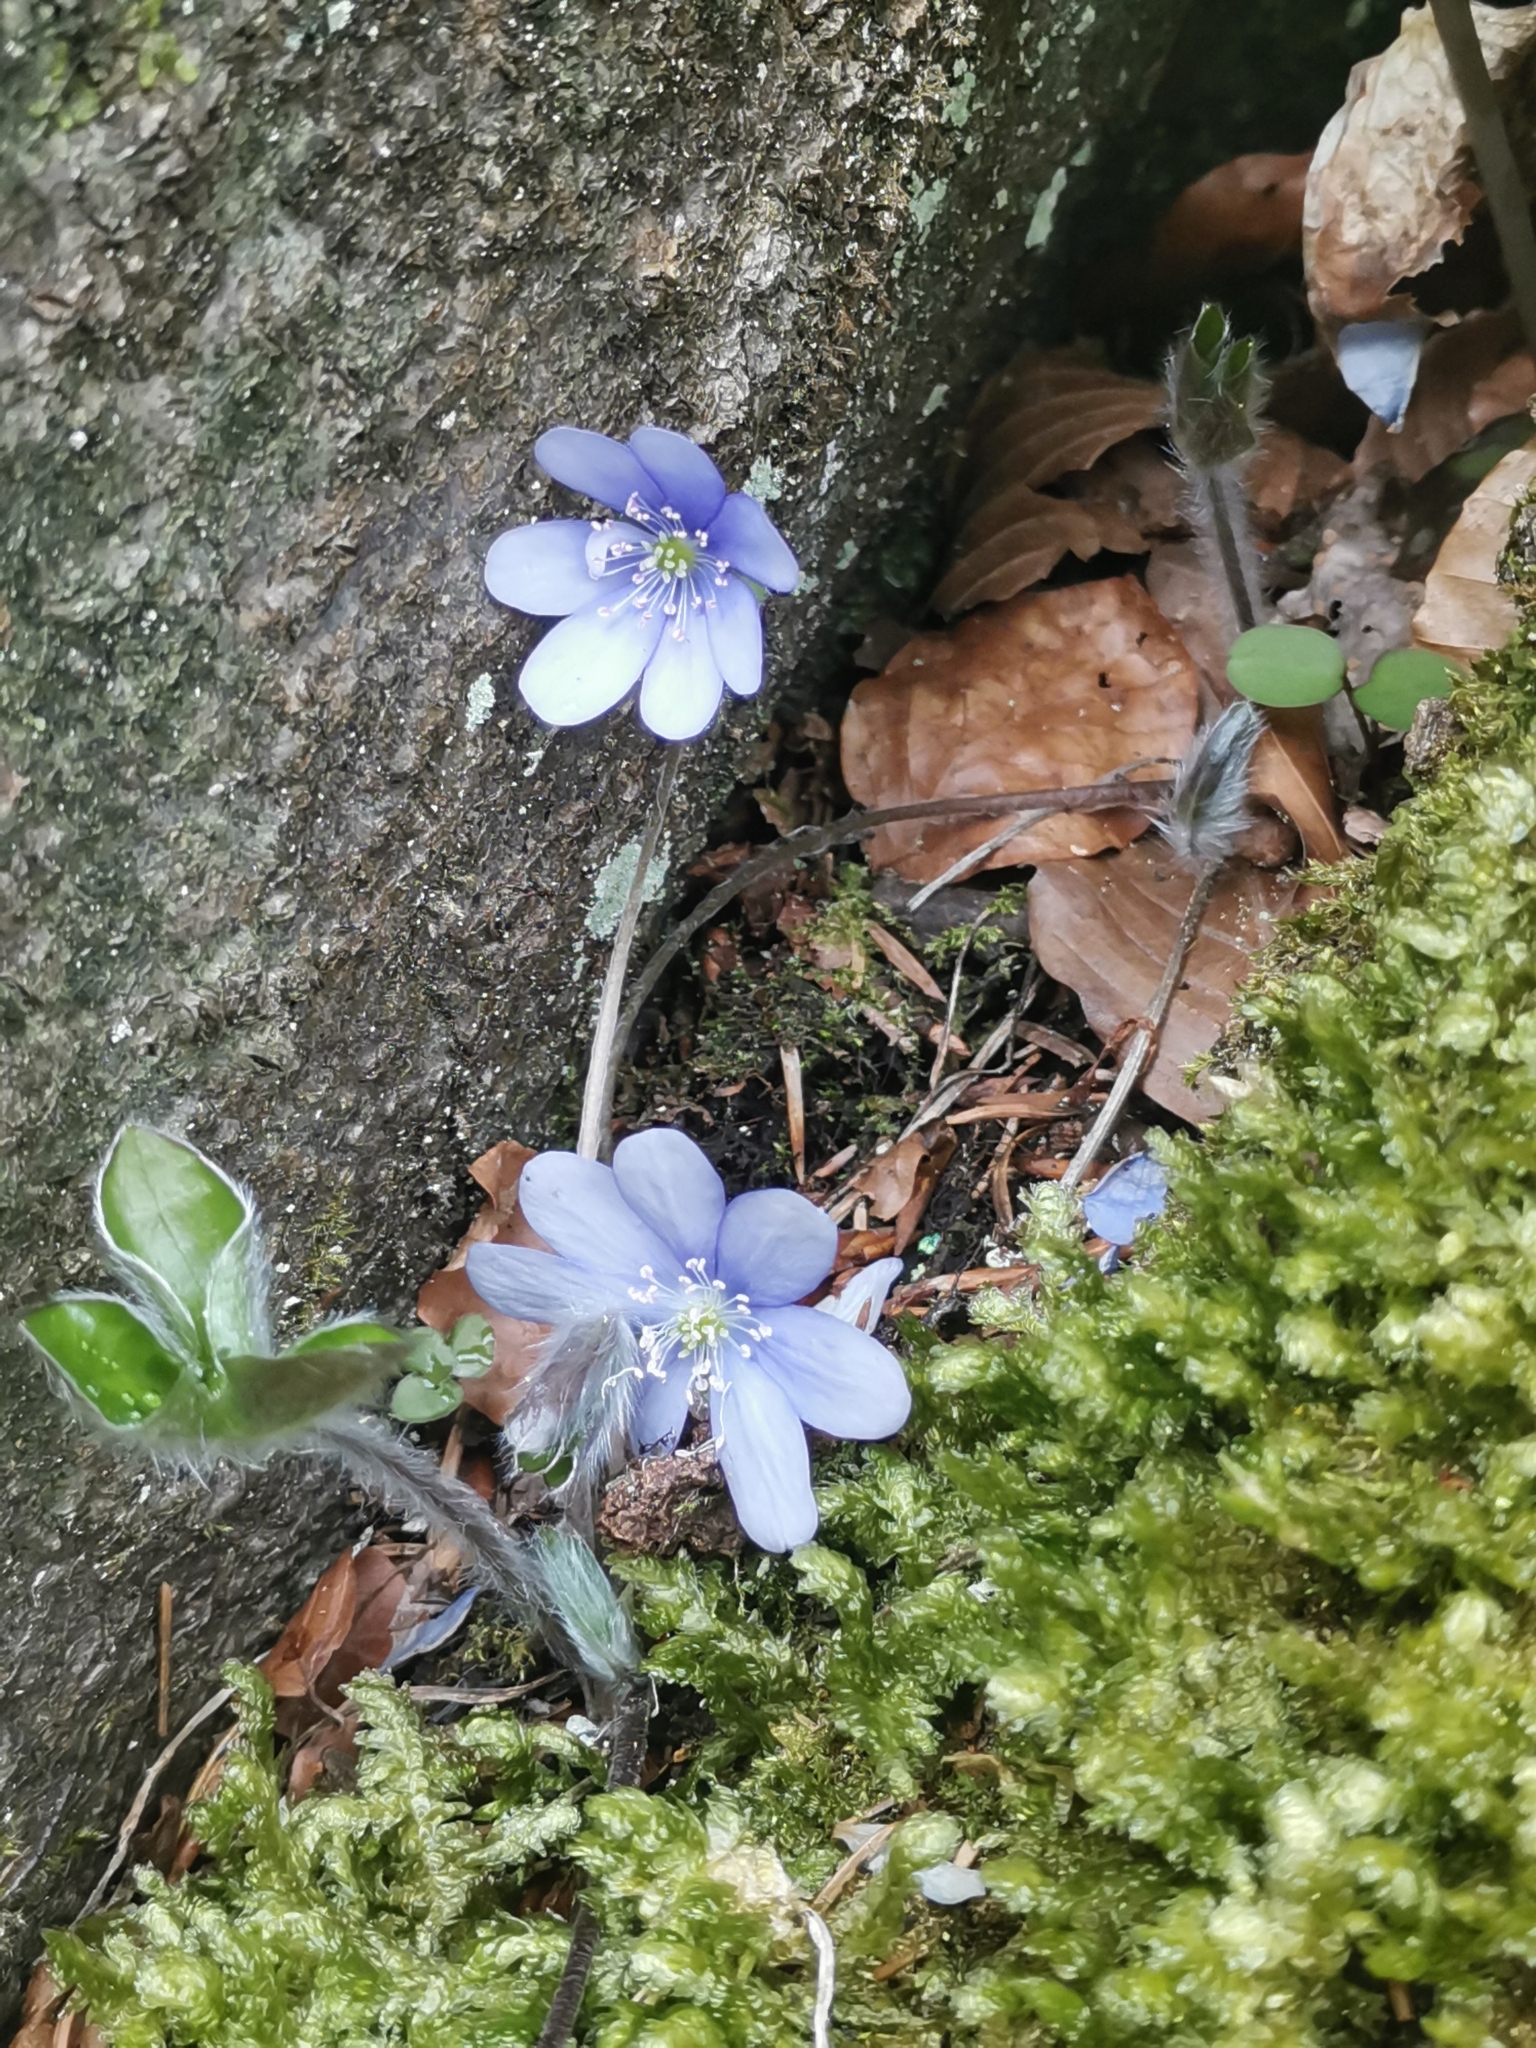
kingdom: Plantae
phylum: Tracheophyta
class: Magnoliopsida
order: Ranunculales
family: Ranunculaceae
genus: Hepatica
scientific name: Hepatica nobilis
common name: Liverleaf
